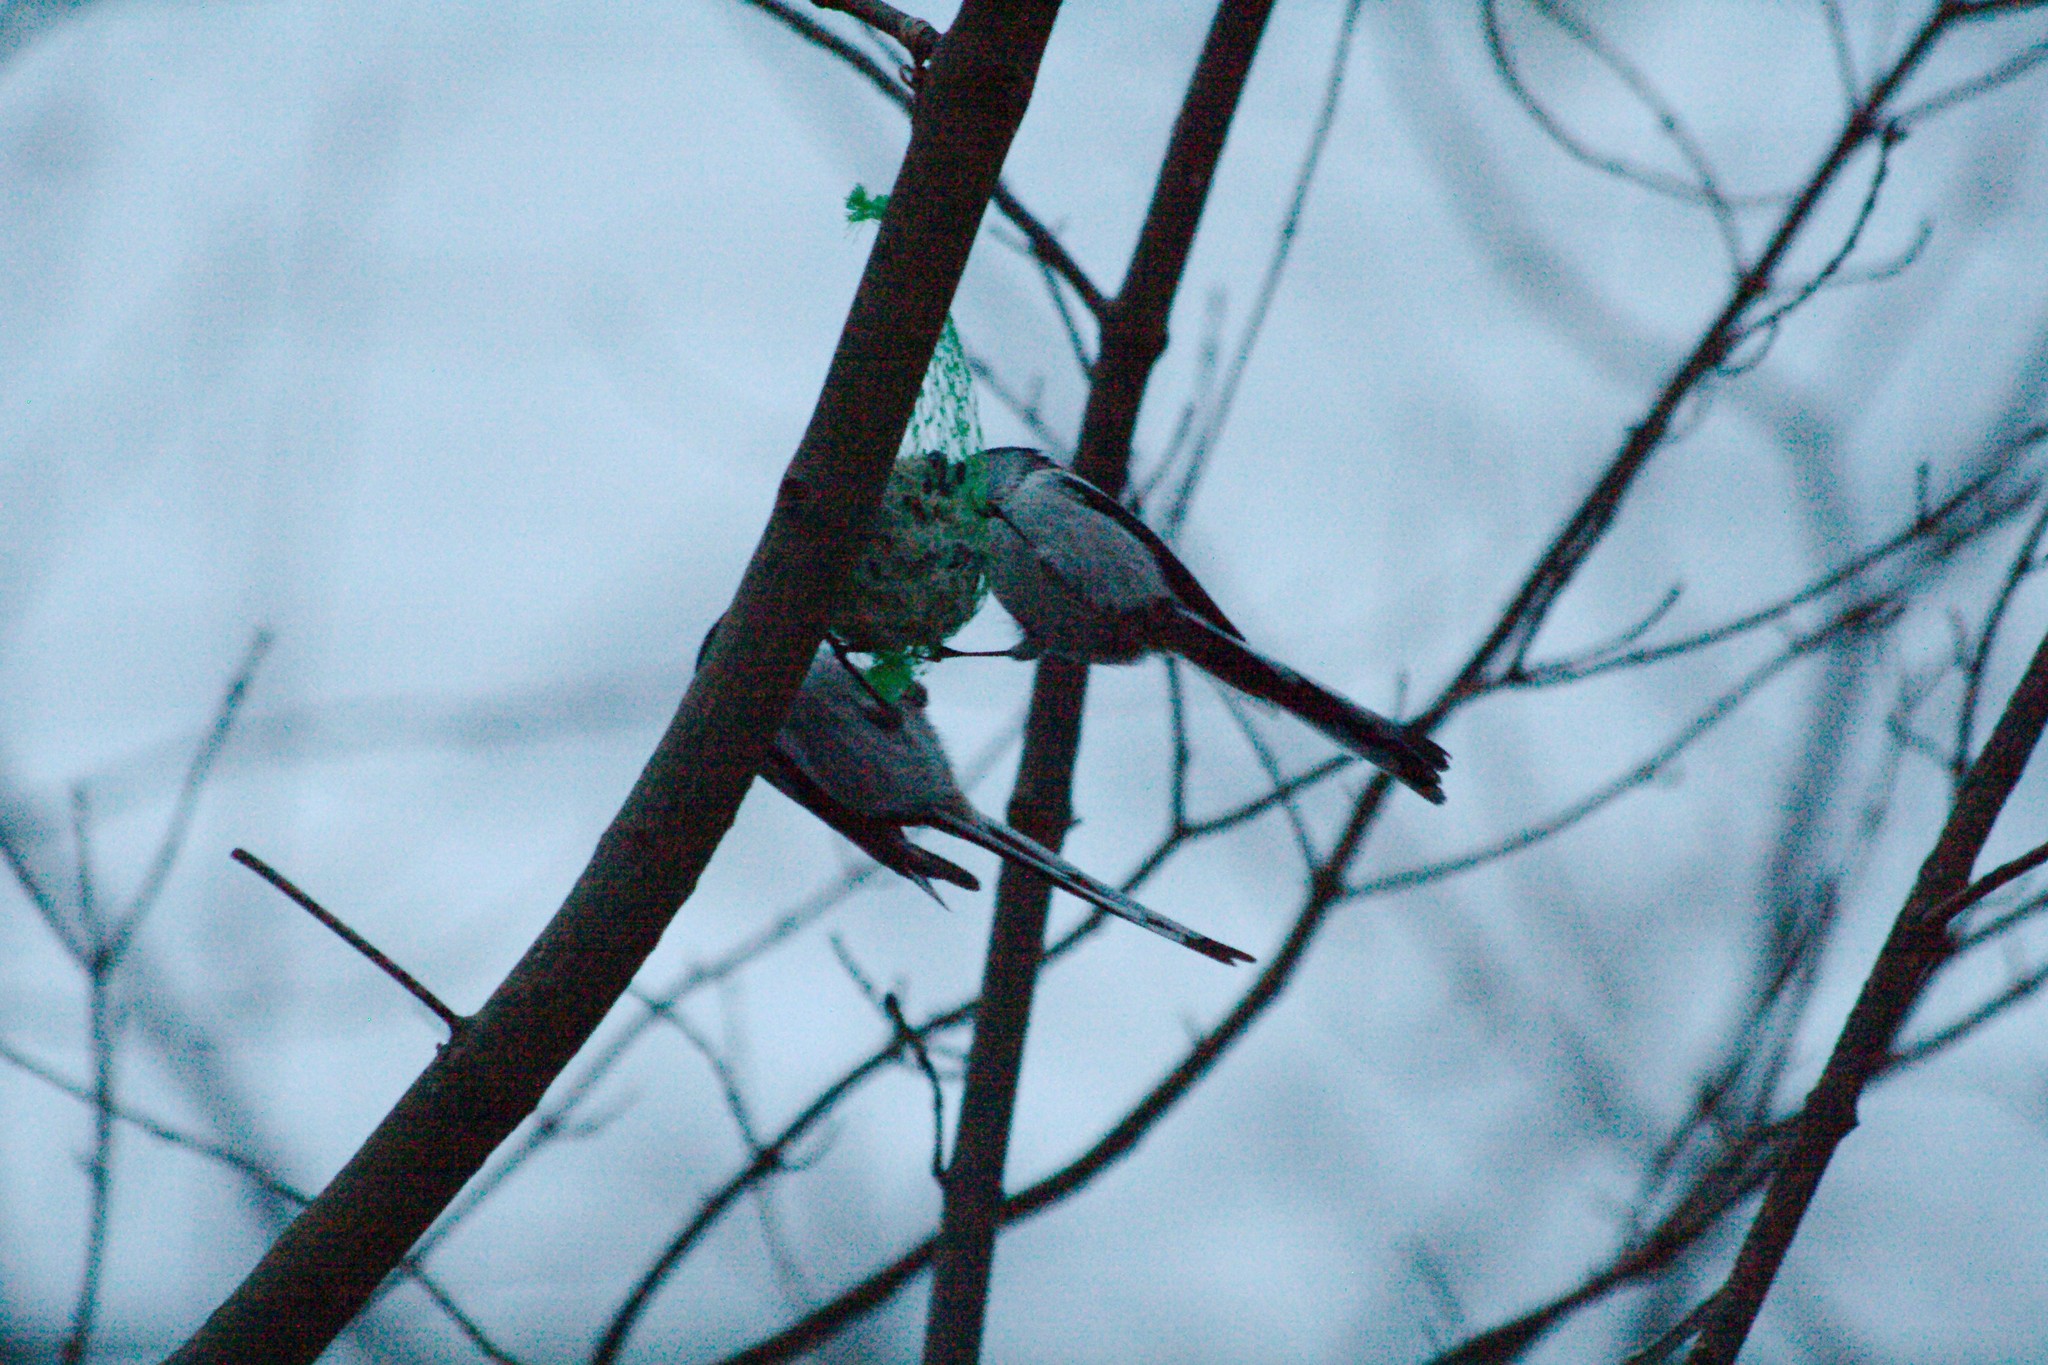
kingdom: Animalia
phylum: Chordata
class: Aves
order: Passeriformes
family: Aegithalidae
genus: Aegithalos
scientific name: Aegithalos caudatus
